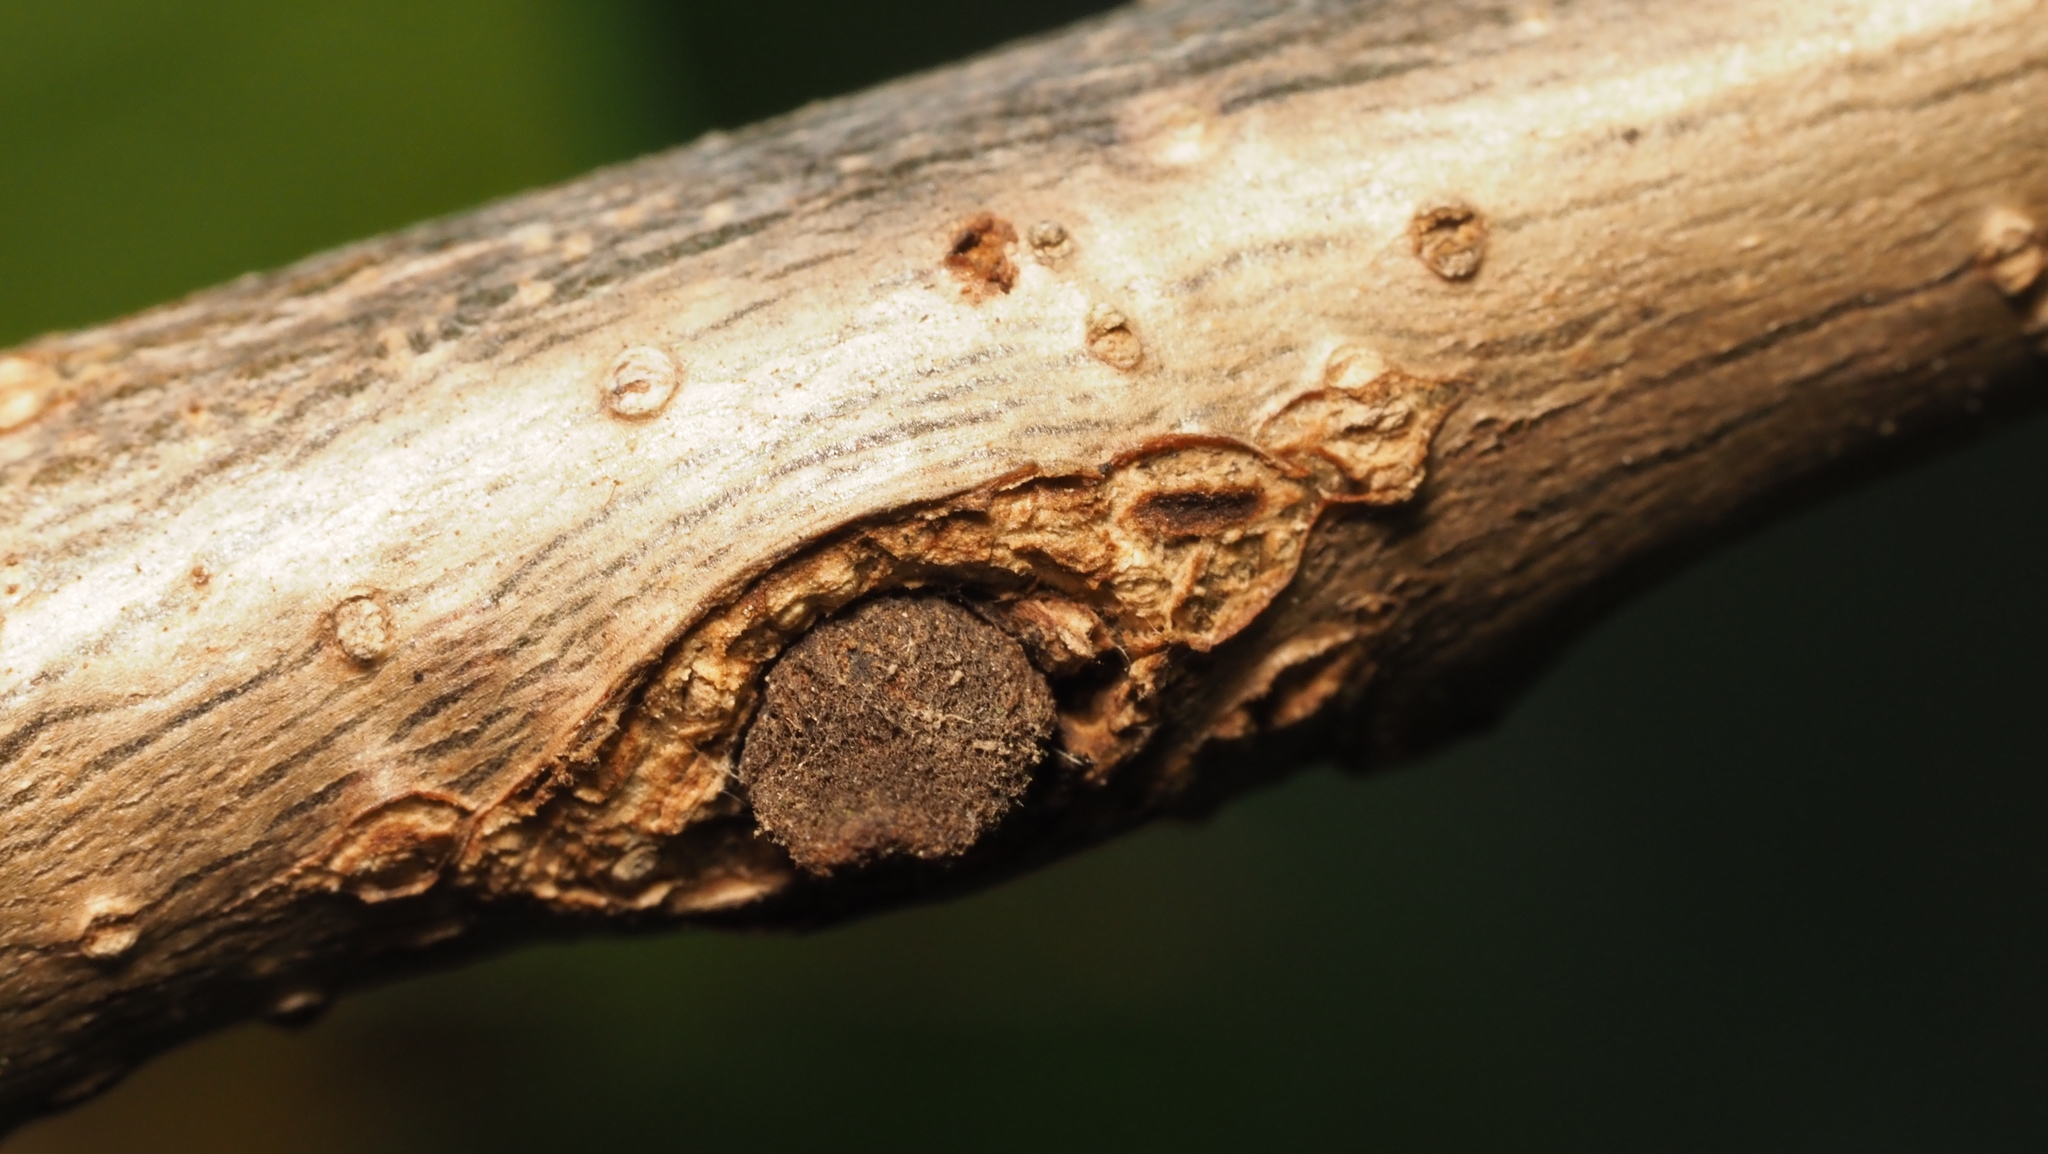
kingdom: Animalia
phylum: Arthropoda
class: Insecta
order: Hymenoptera
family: Cynipidae
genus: Disholcaspis
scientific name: Disholcaspis
